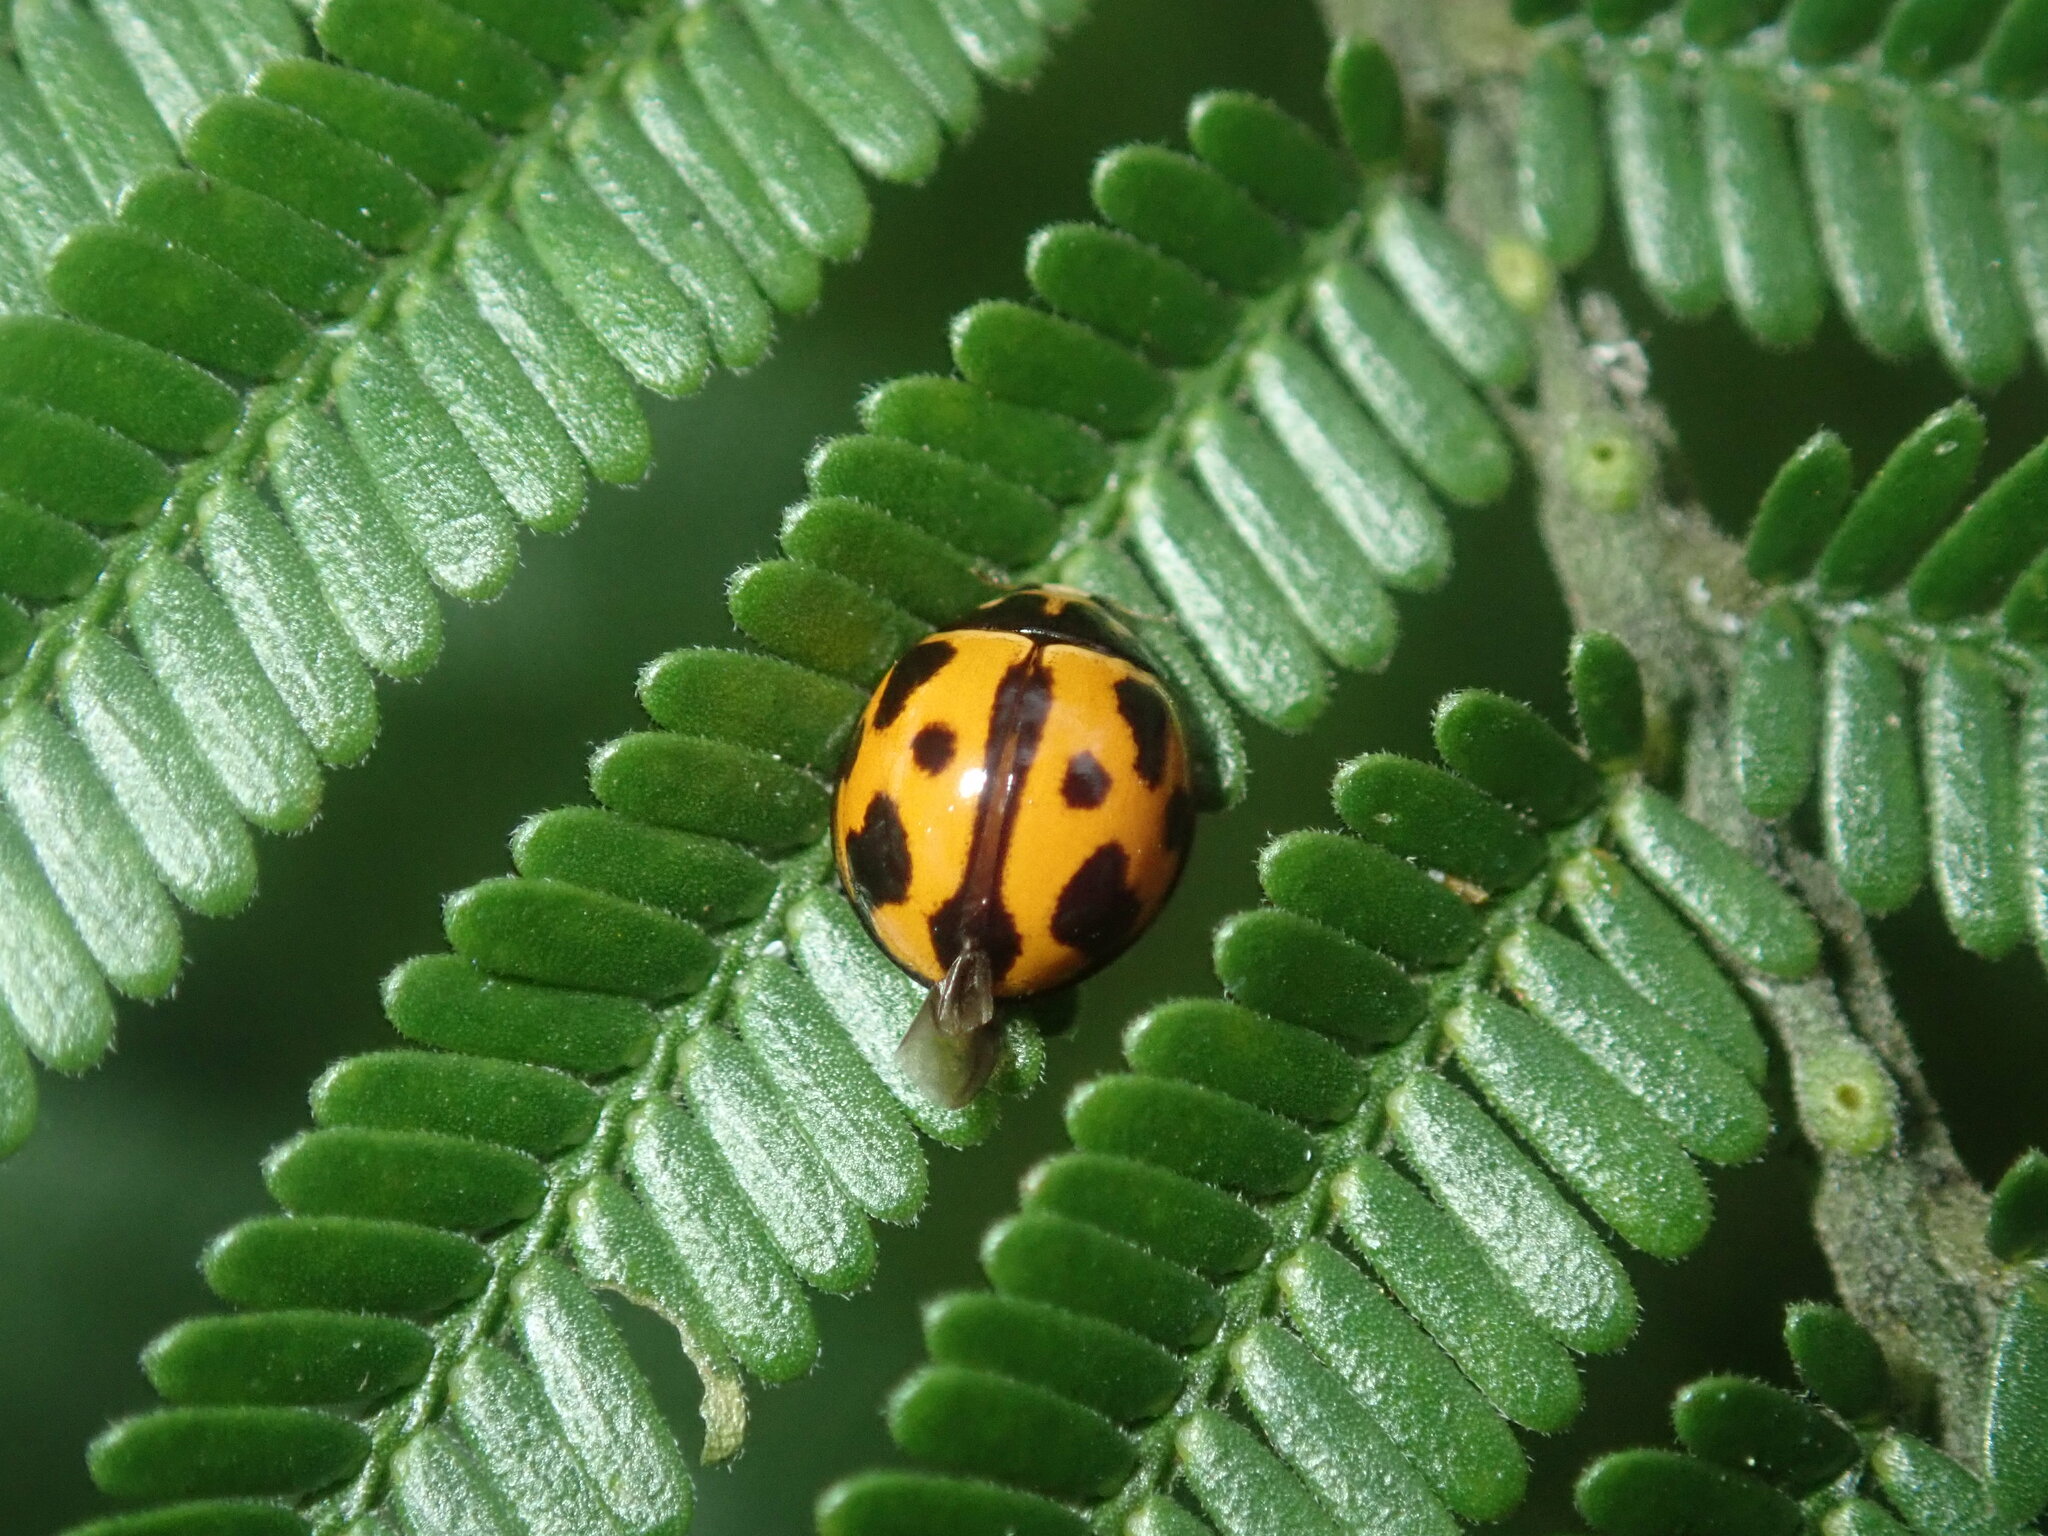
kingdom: Animalia
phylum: Arthropoda
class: Insecta
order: Coleoptera
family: Coccinellidae
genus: Coelophora
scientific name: Coelophora inaequalis
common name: Common australian lady beetle
